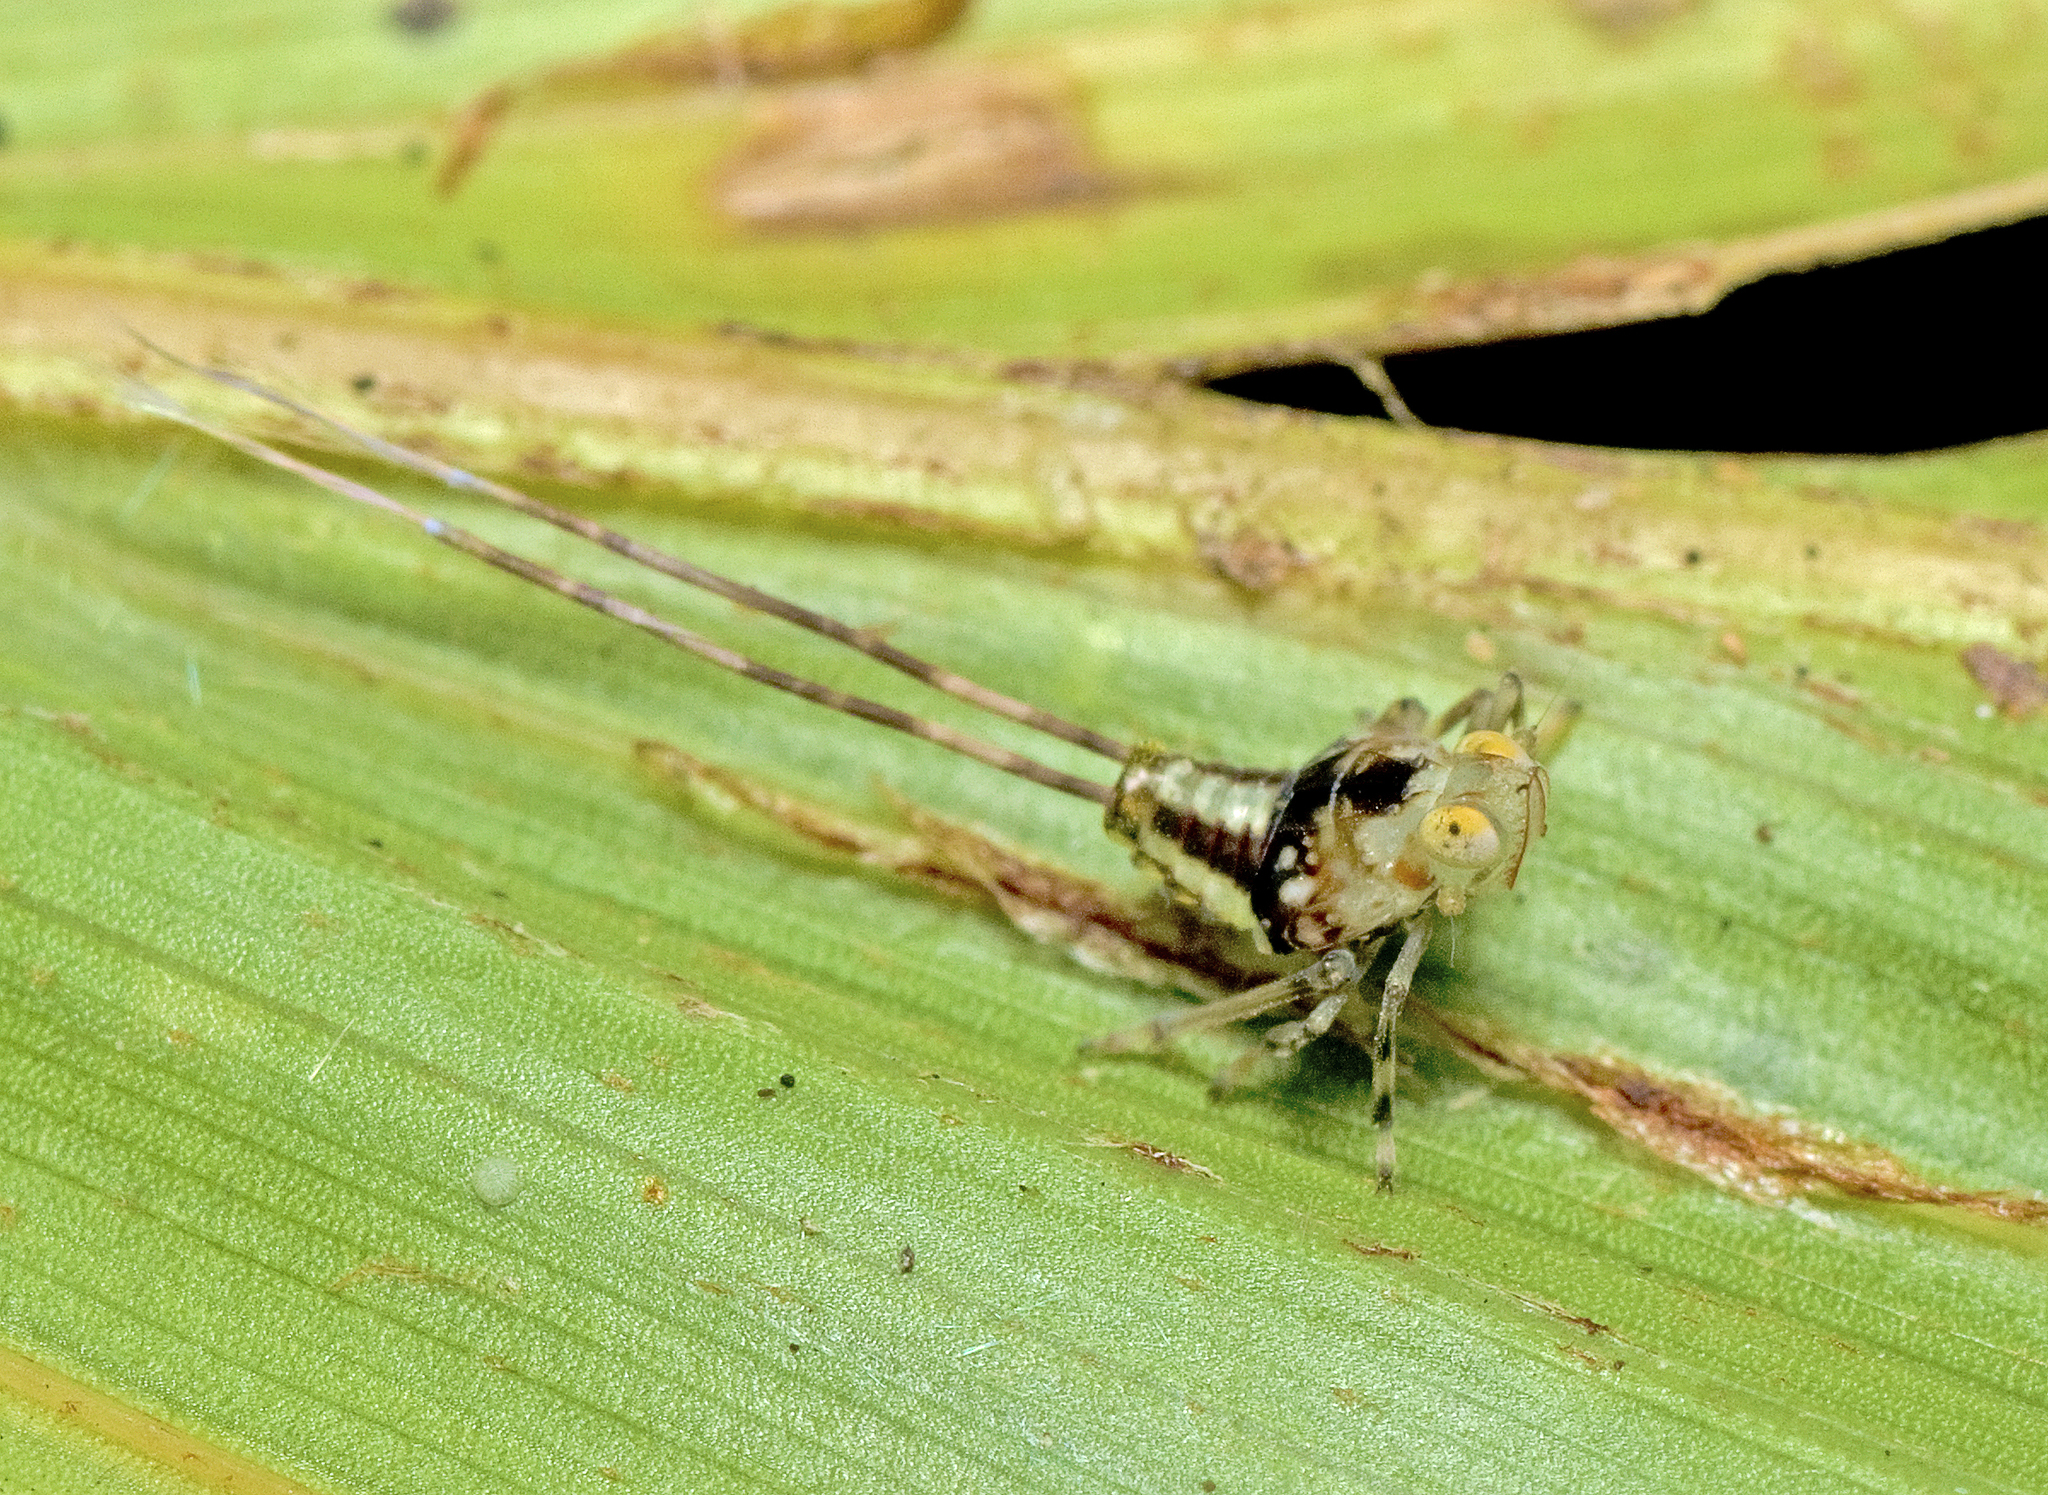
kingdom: Animalia
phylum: Arthropoda
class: Insecta
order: Hemiptera
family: Lophopidae
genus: Magia
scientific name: Magia subocellata
